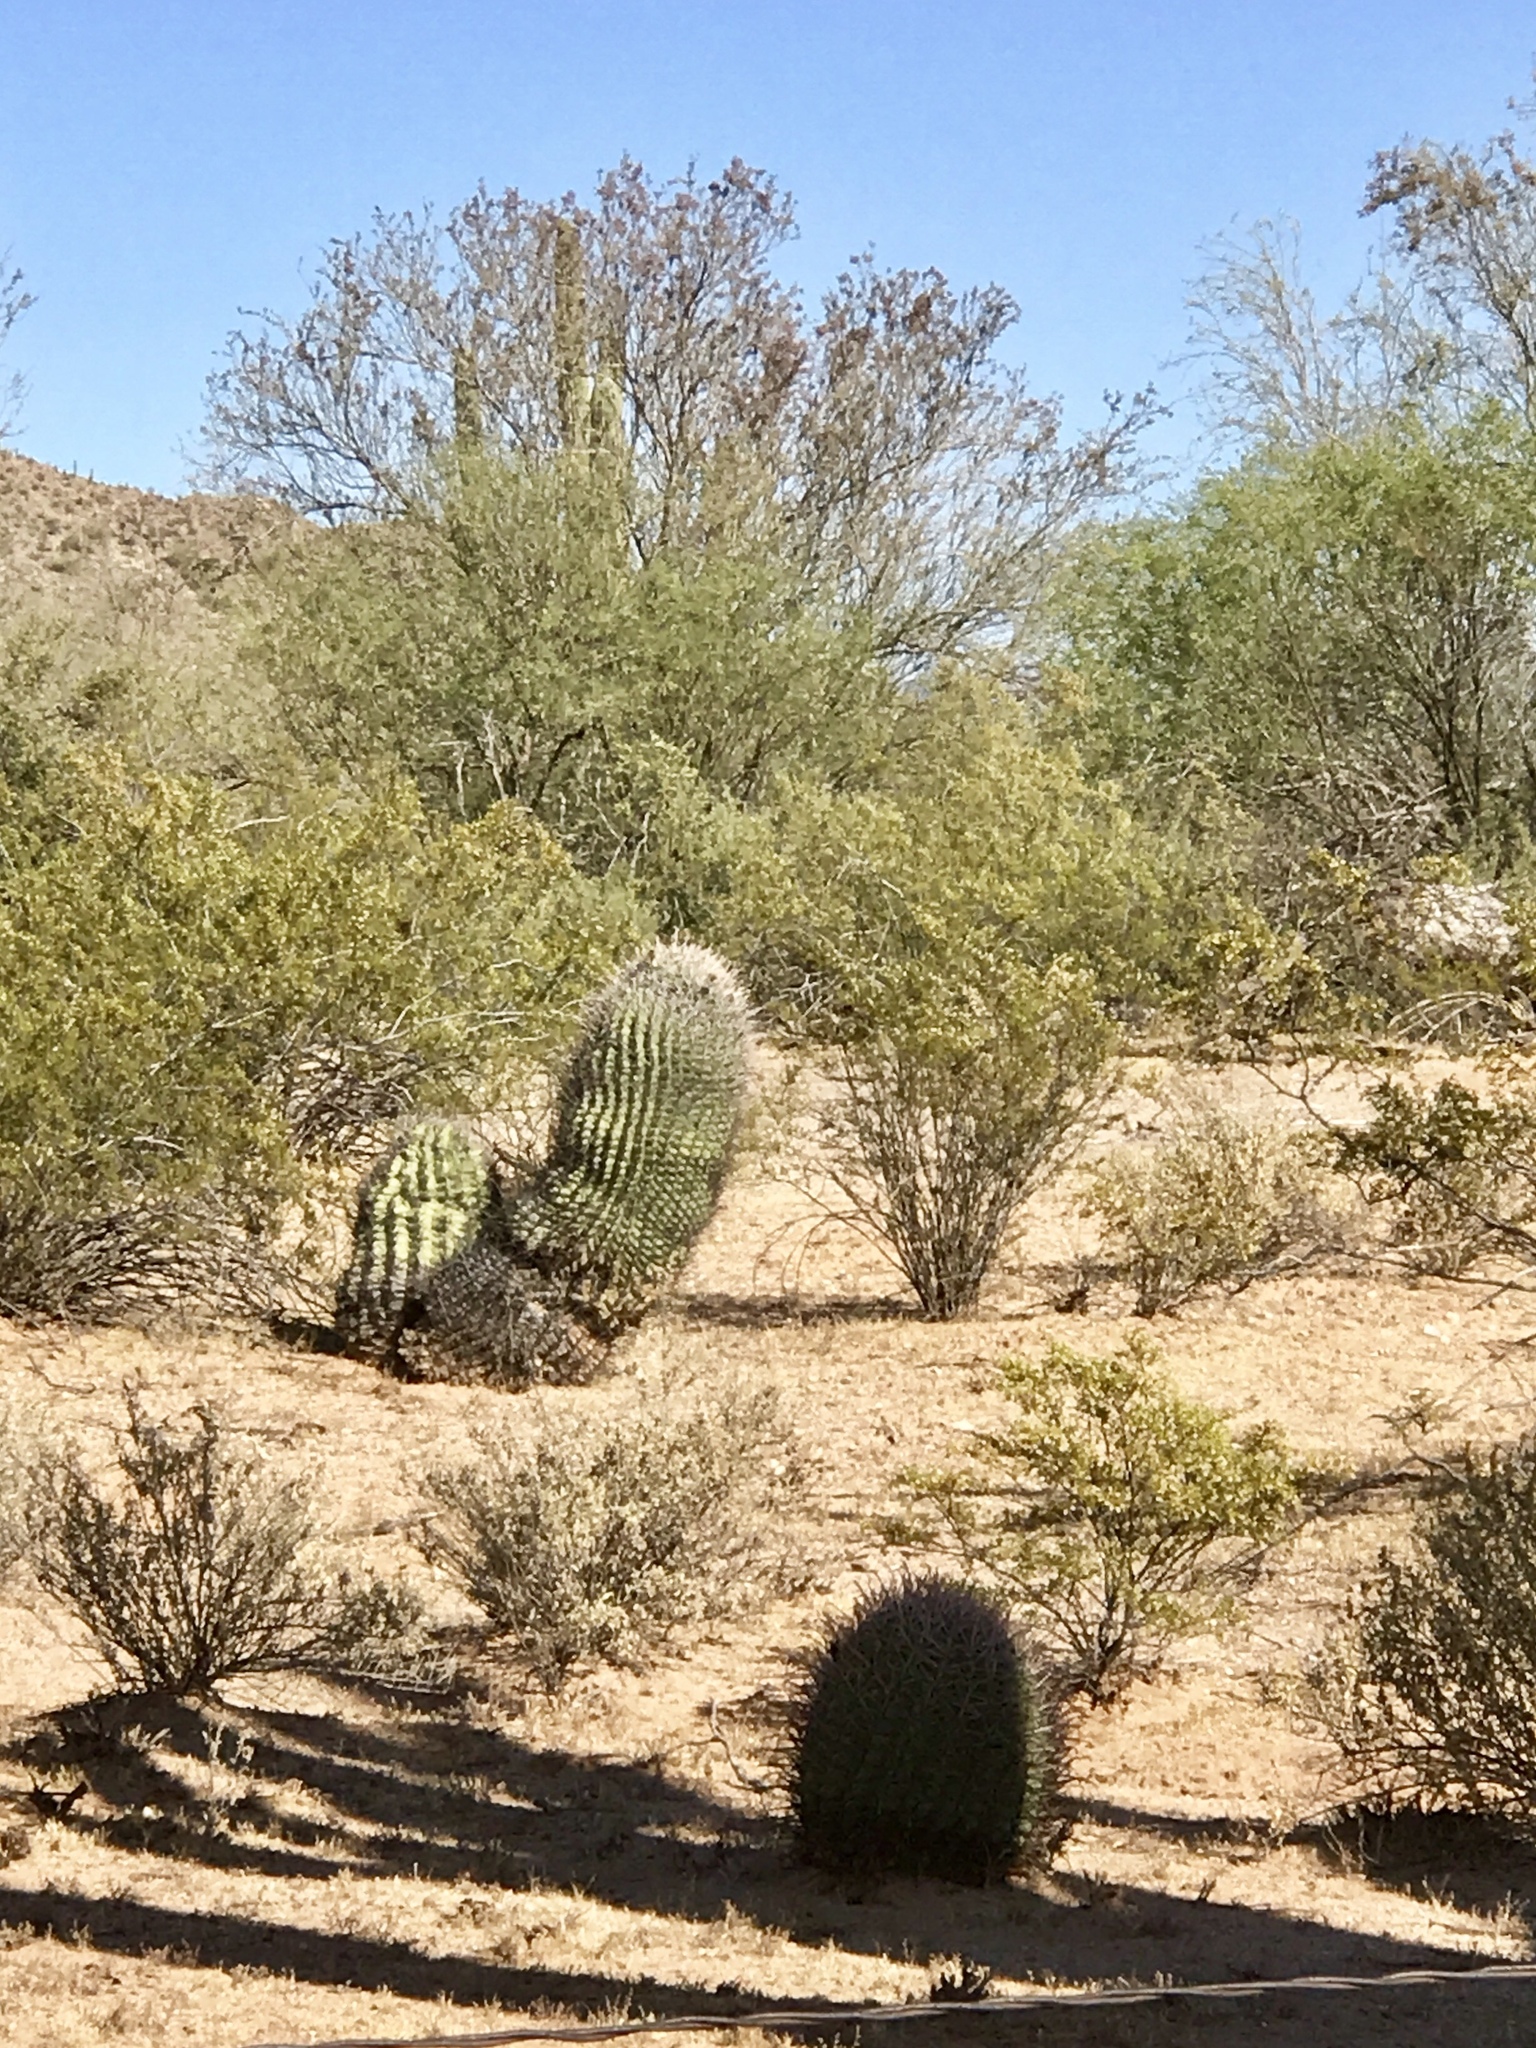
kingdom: Plantae
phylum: Tracheophyta
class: Magnoliopsida
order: Caryophyllales
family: Cactaceae
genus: Ferocactus
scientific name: Ferocactus wislizeni
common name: Candy barrel cactus
